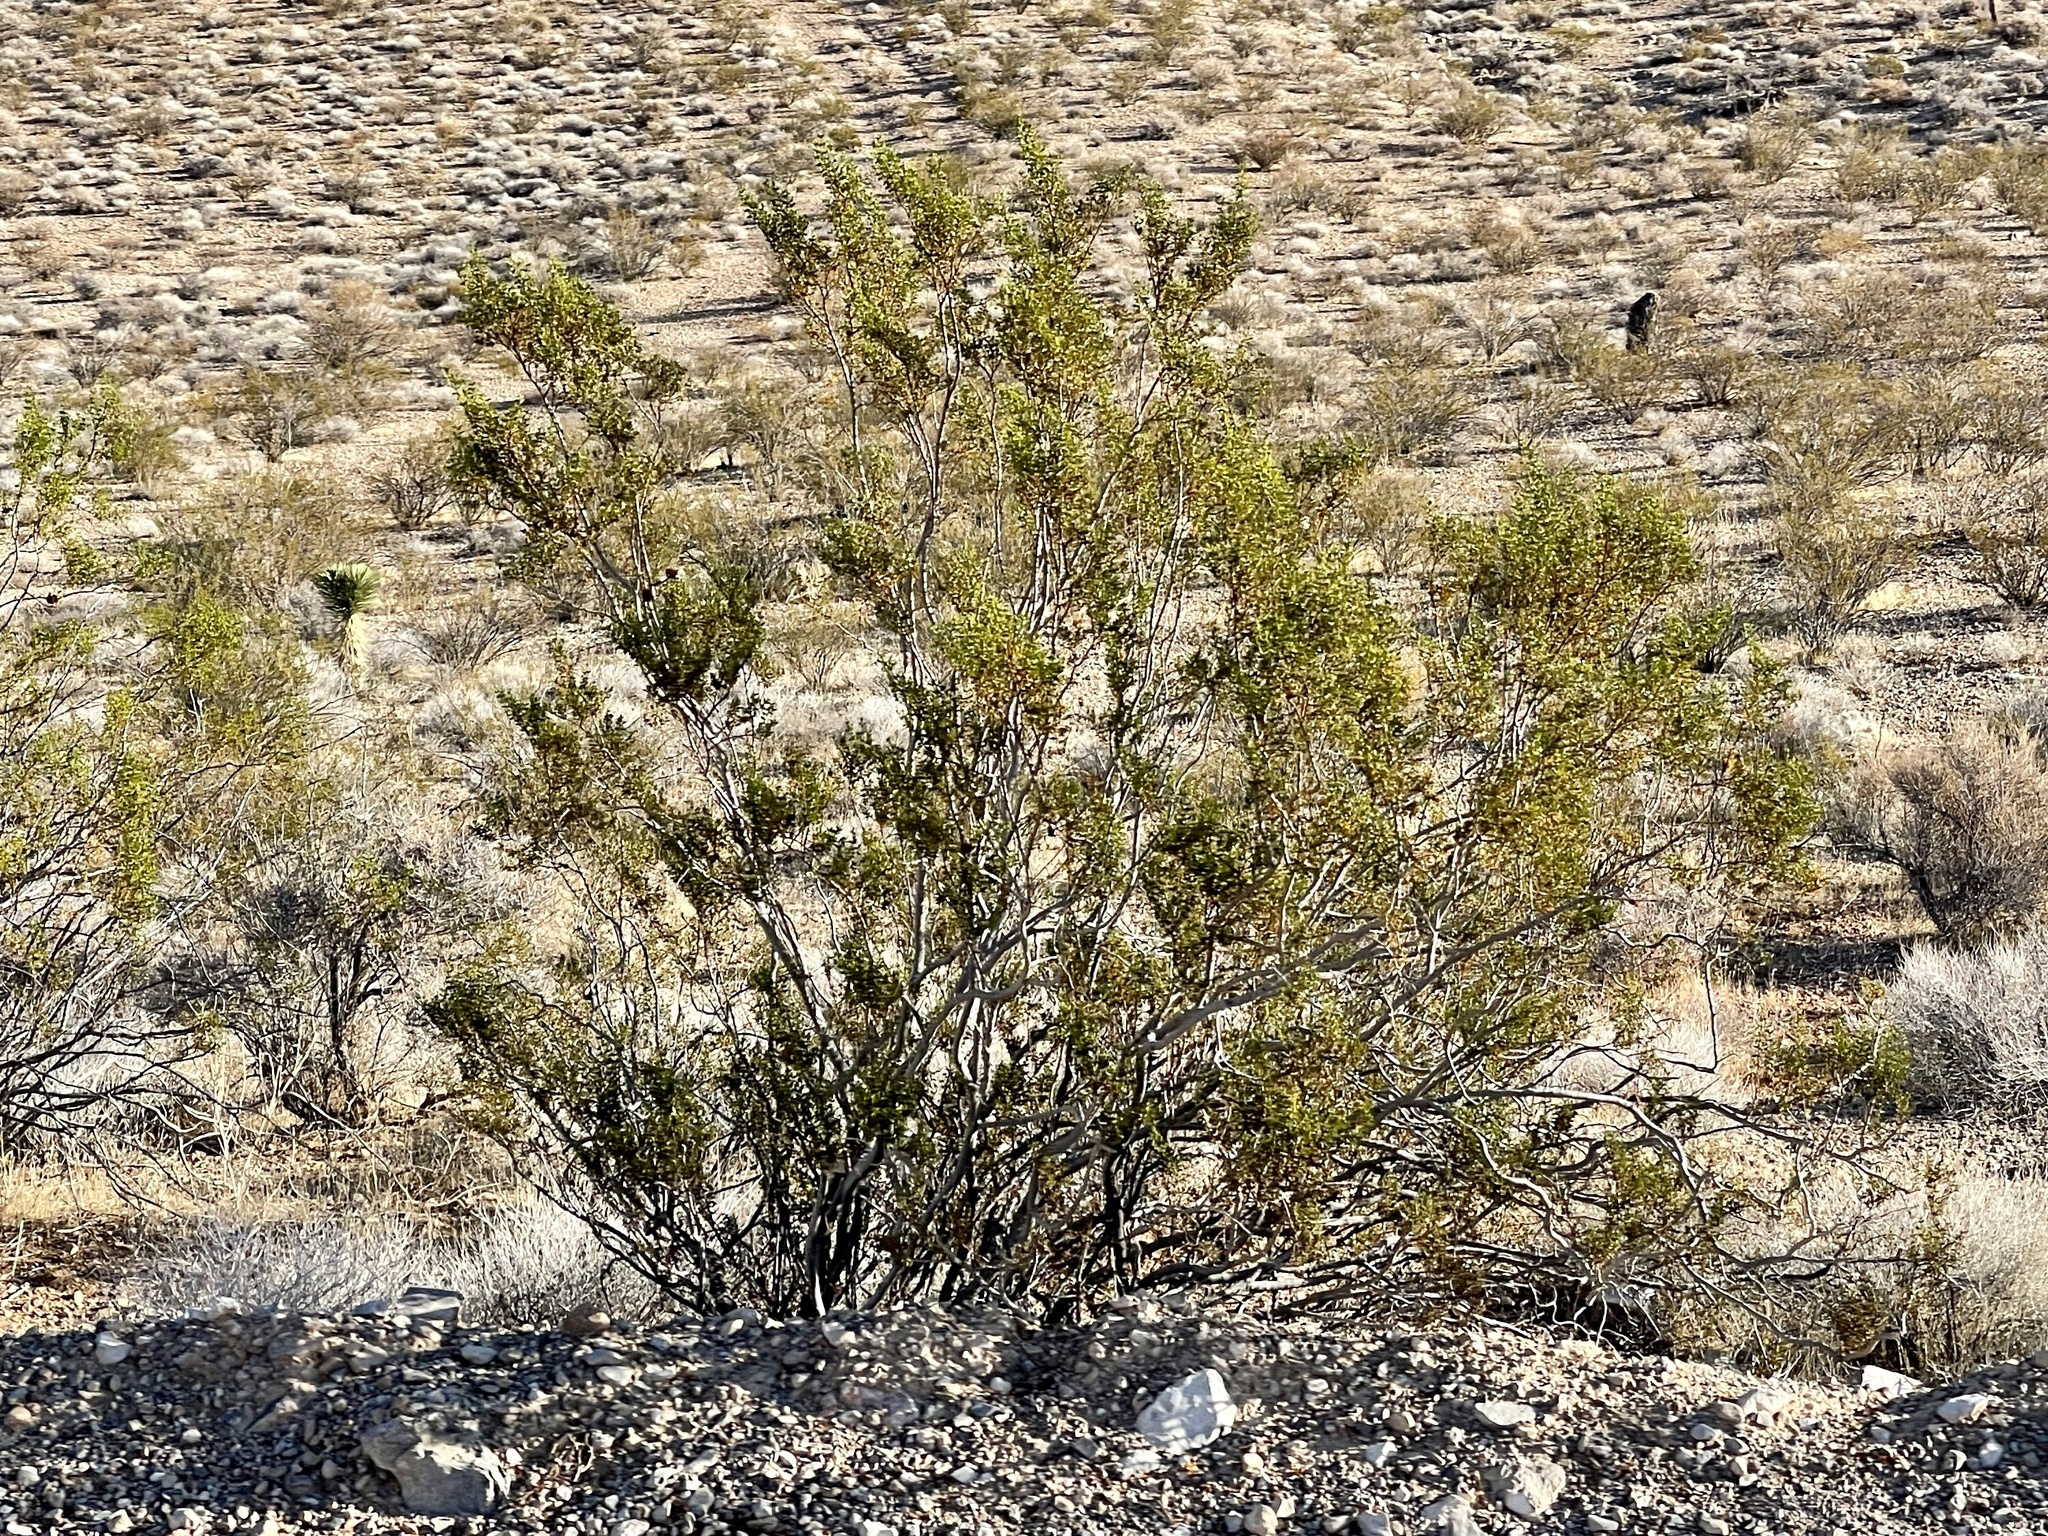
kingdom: Plantae
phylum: Tracheophyta
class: Magnoliopsida
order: Zygophyllales
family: Zygophyllaceae
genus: Larrea
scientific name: Larrea tridentata
